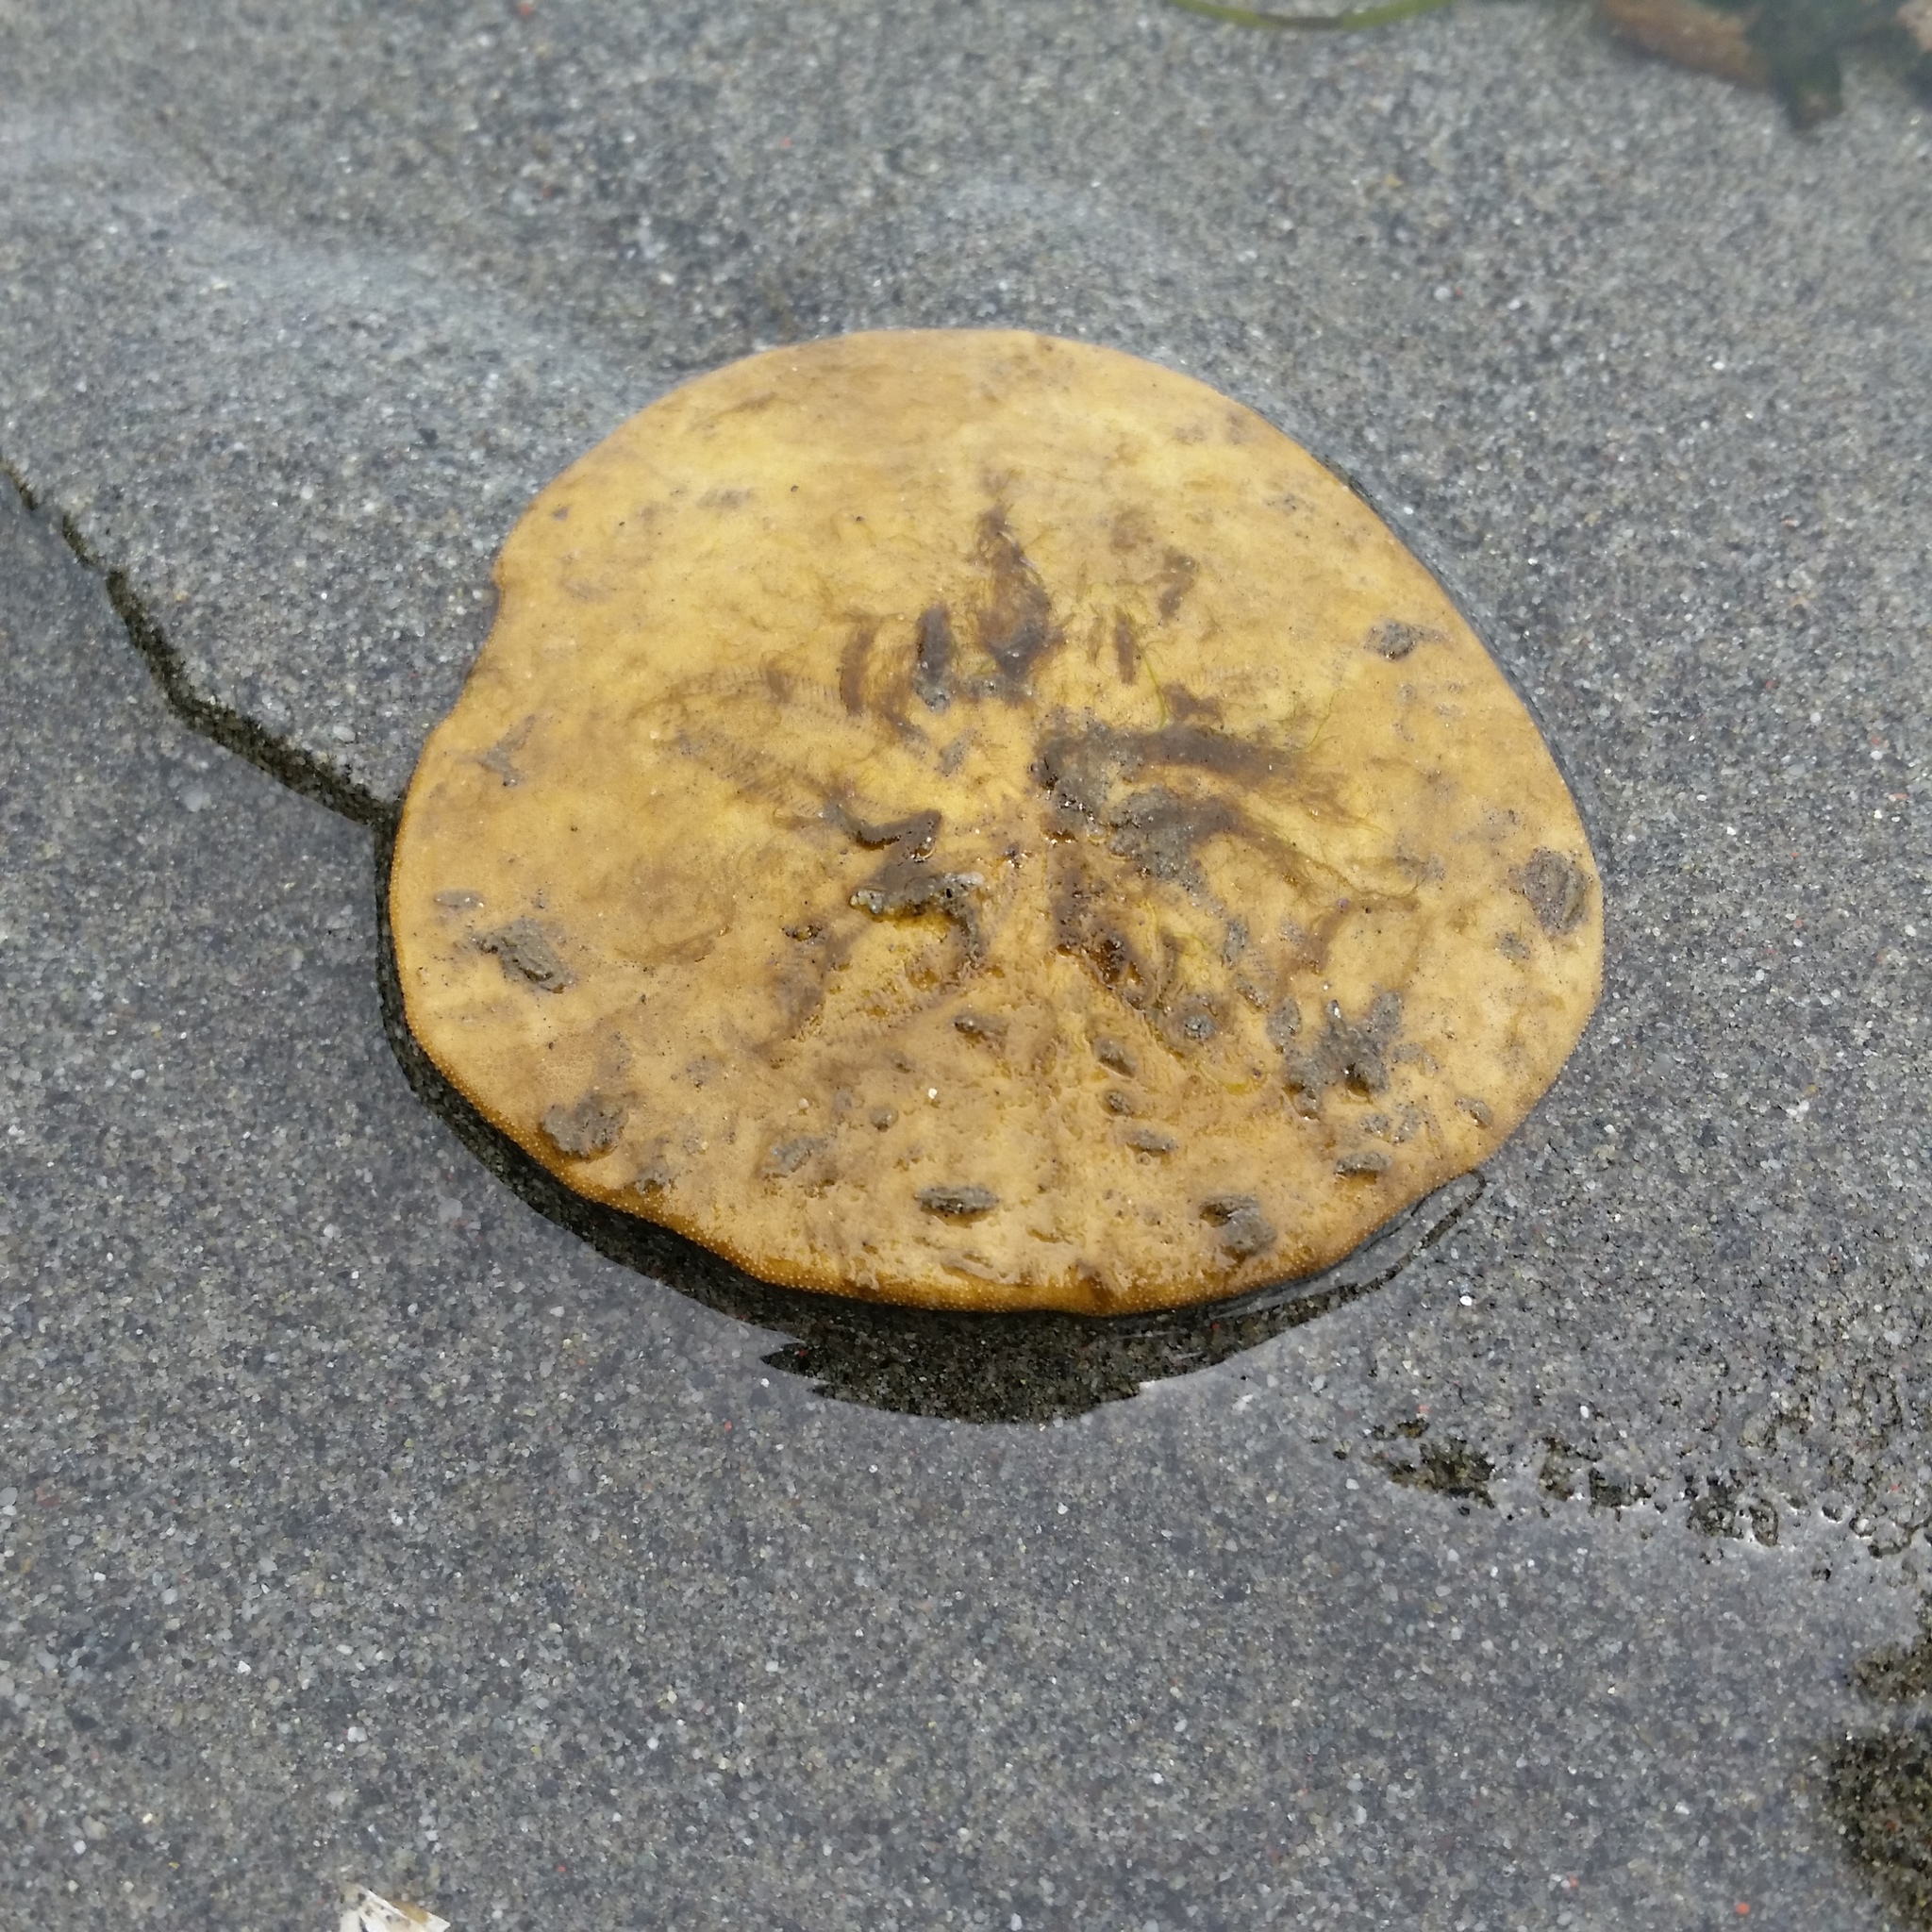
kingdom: Animalia
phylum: Echinodermata
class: Echinoidea
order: Echinolampadacea
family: Dendrasteridae
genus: Dendraster
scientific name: Dendraster excentricus
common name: Eccentric sand dollar sea urchin
